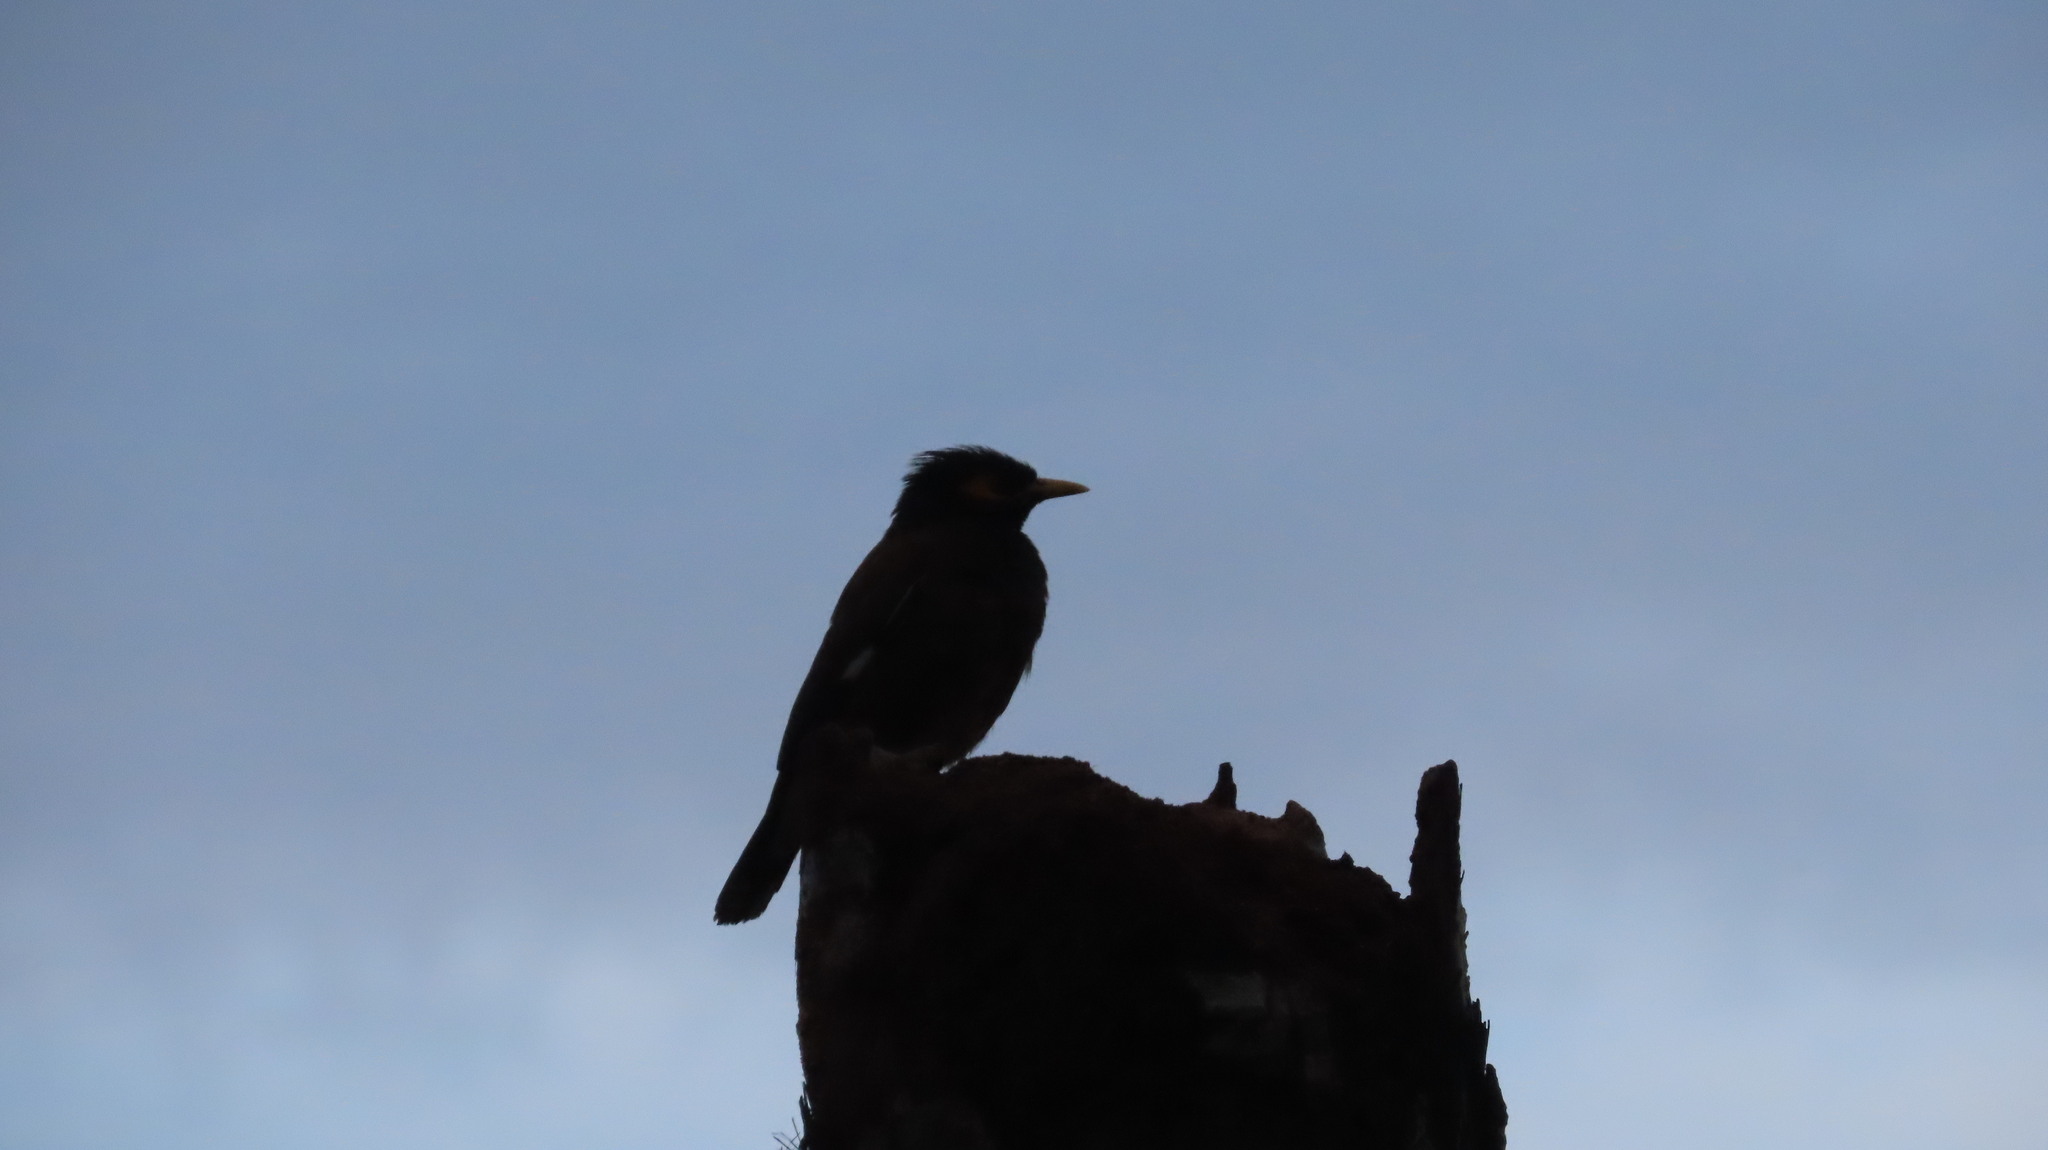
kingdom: Animalia
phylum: Chordata
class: Aves
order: Passeriformes
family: Sturnidae
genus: Acridotheres
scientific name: Acridotheres tristis
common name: Common myna
